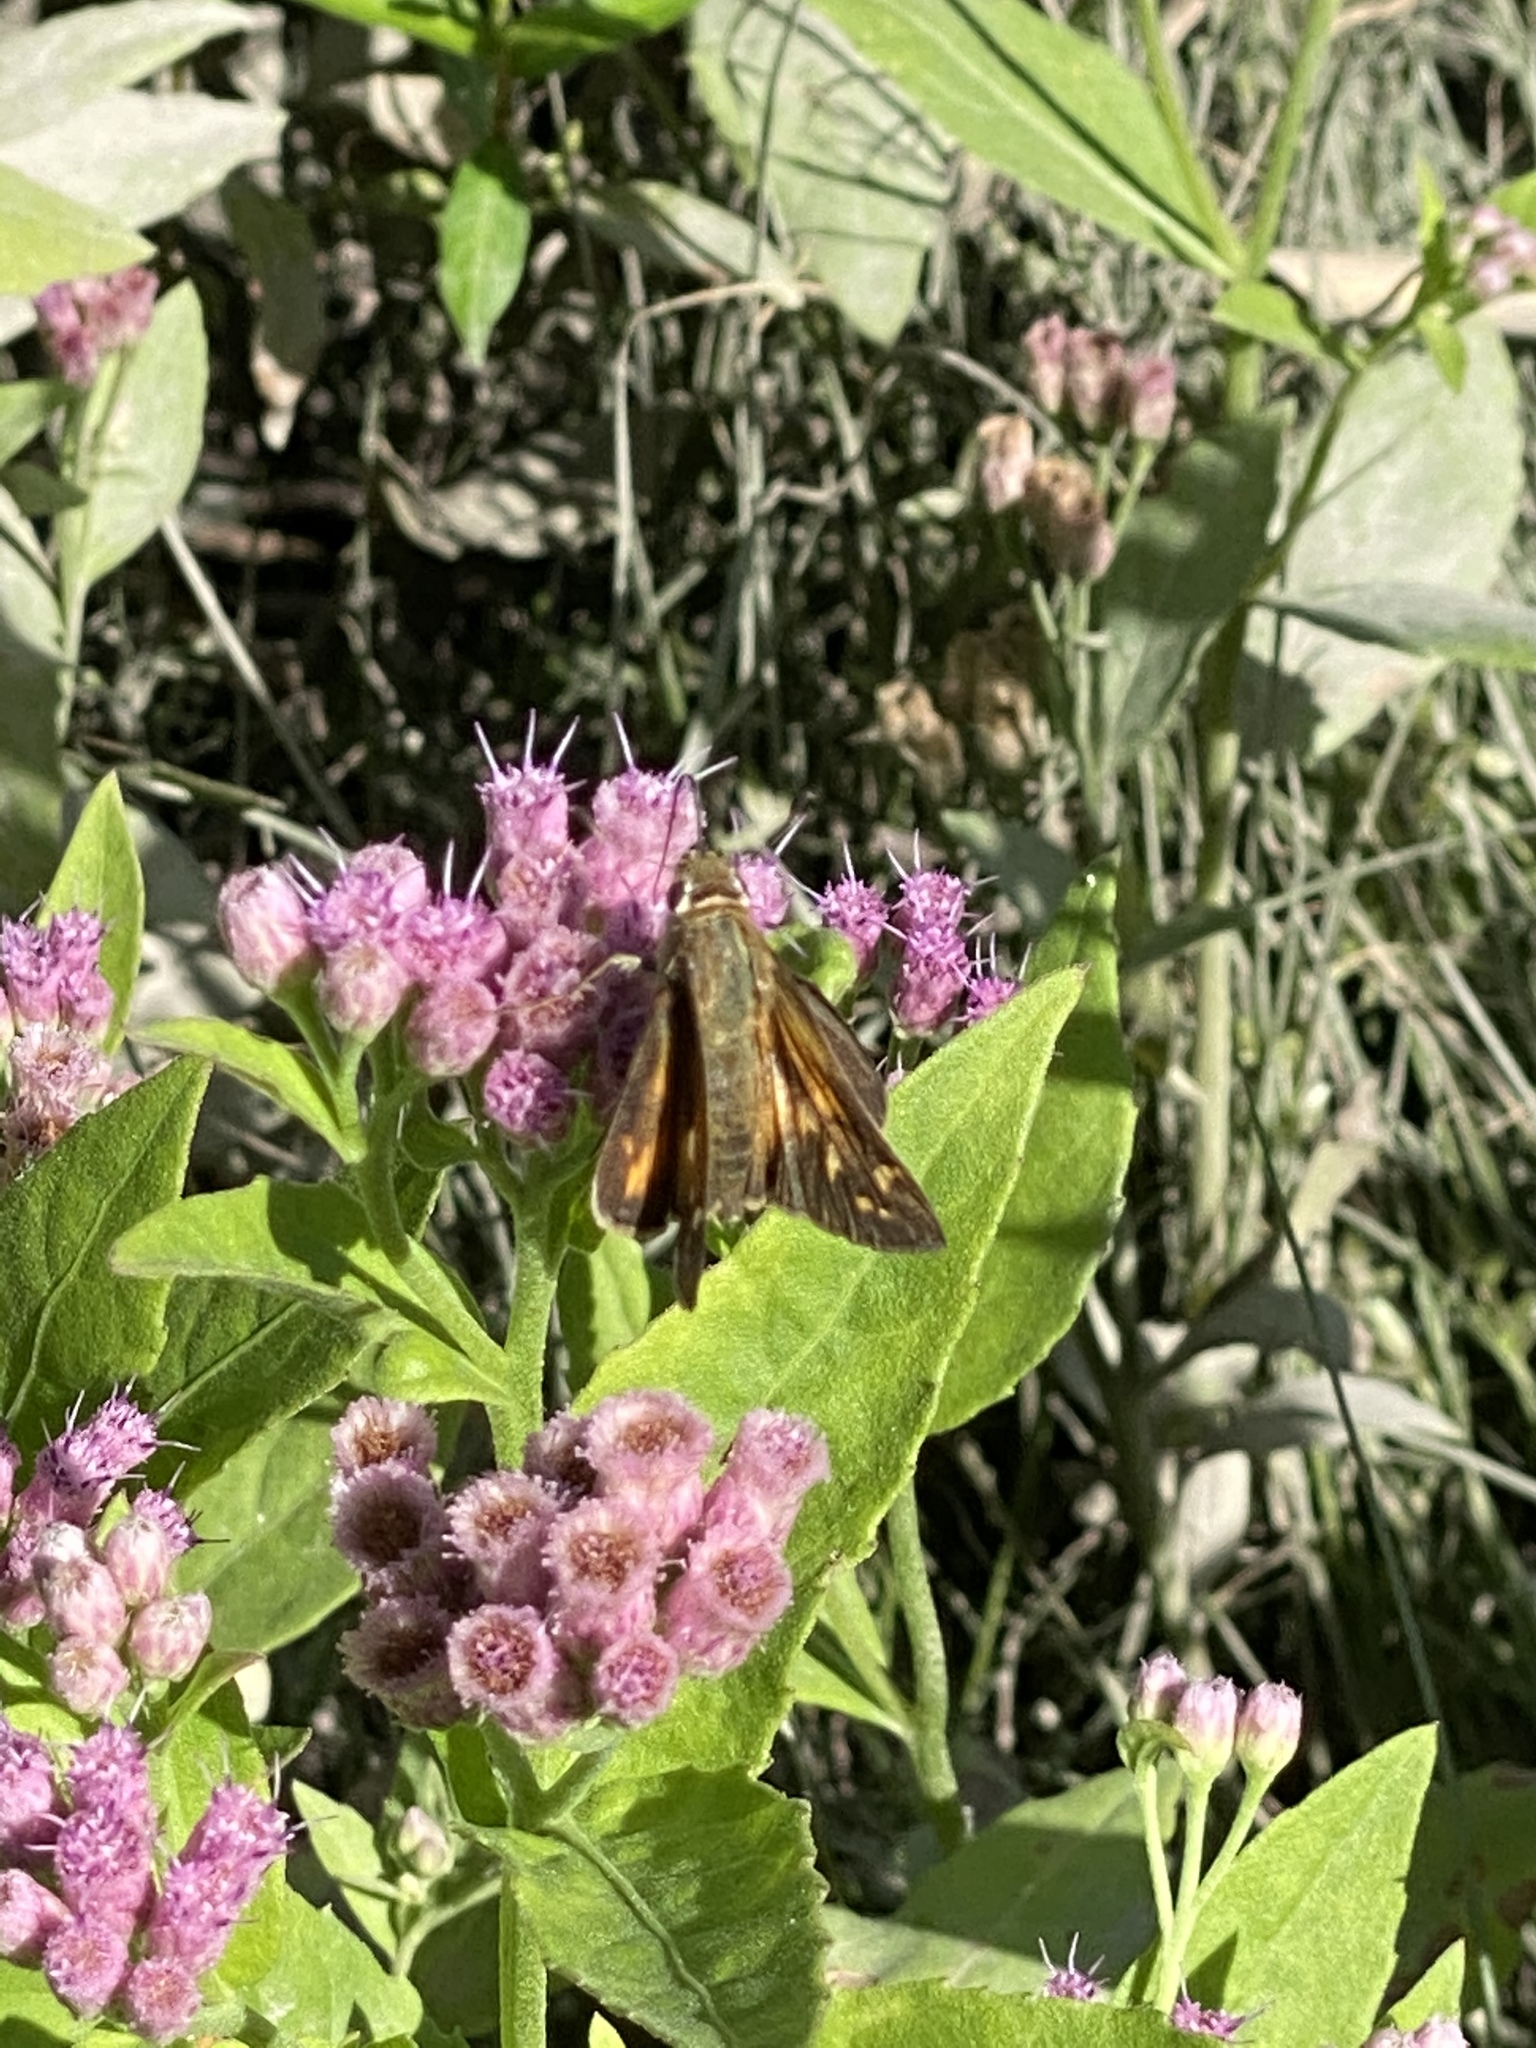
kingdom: Animalia
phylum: Arthropoda
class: Insecta
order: Lepidoptera
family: Hesperiidae
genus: Atalopedes
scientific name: Atalopedes
